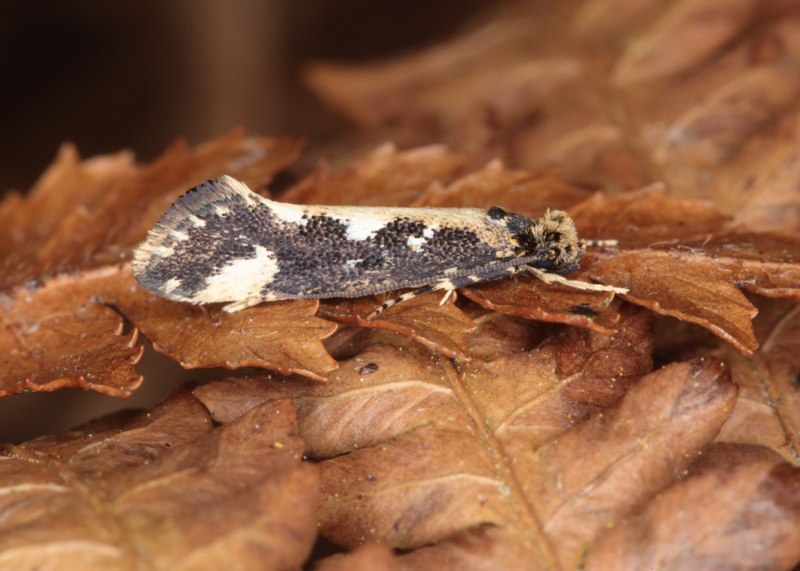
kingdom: Animalia
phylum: Arthropoda
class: Insecta
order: Lepidoptera
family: Tineidae
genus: Proterodesma
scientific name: Proterodesma chathamica
